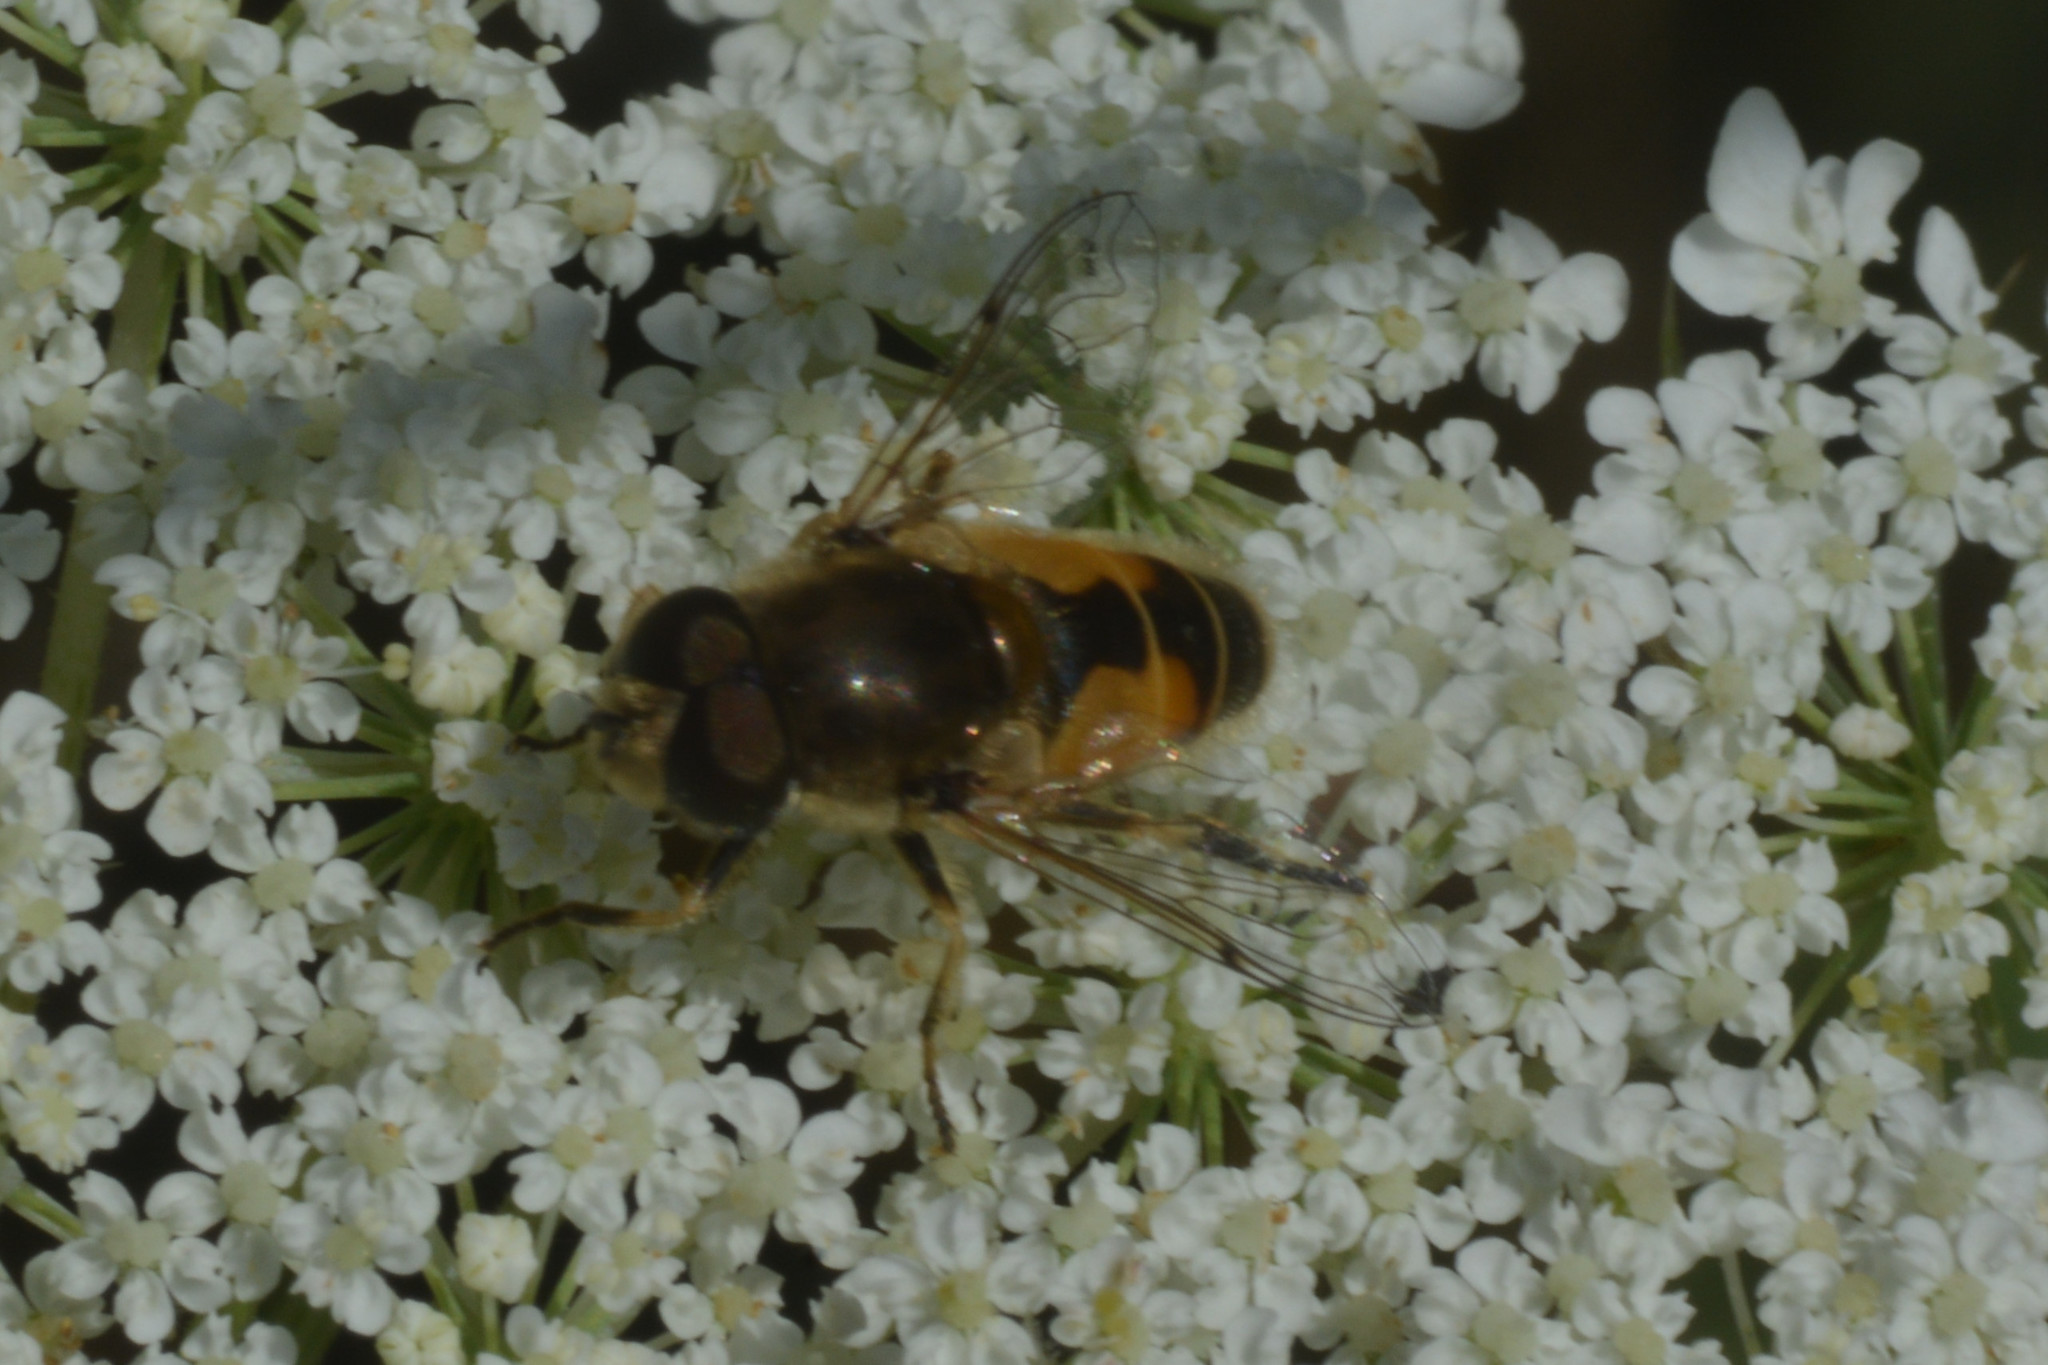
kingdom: Animalia
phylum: Arthropoda
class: Insecta
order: Diptera
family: Syrphidae
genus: Eristalis
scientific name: Eristalis arbustorum
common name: Hover fly
